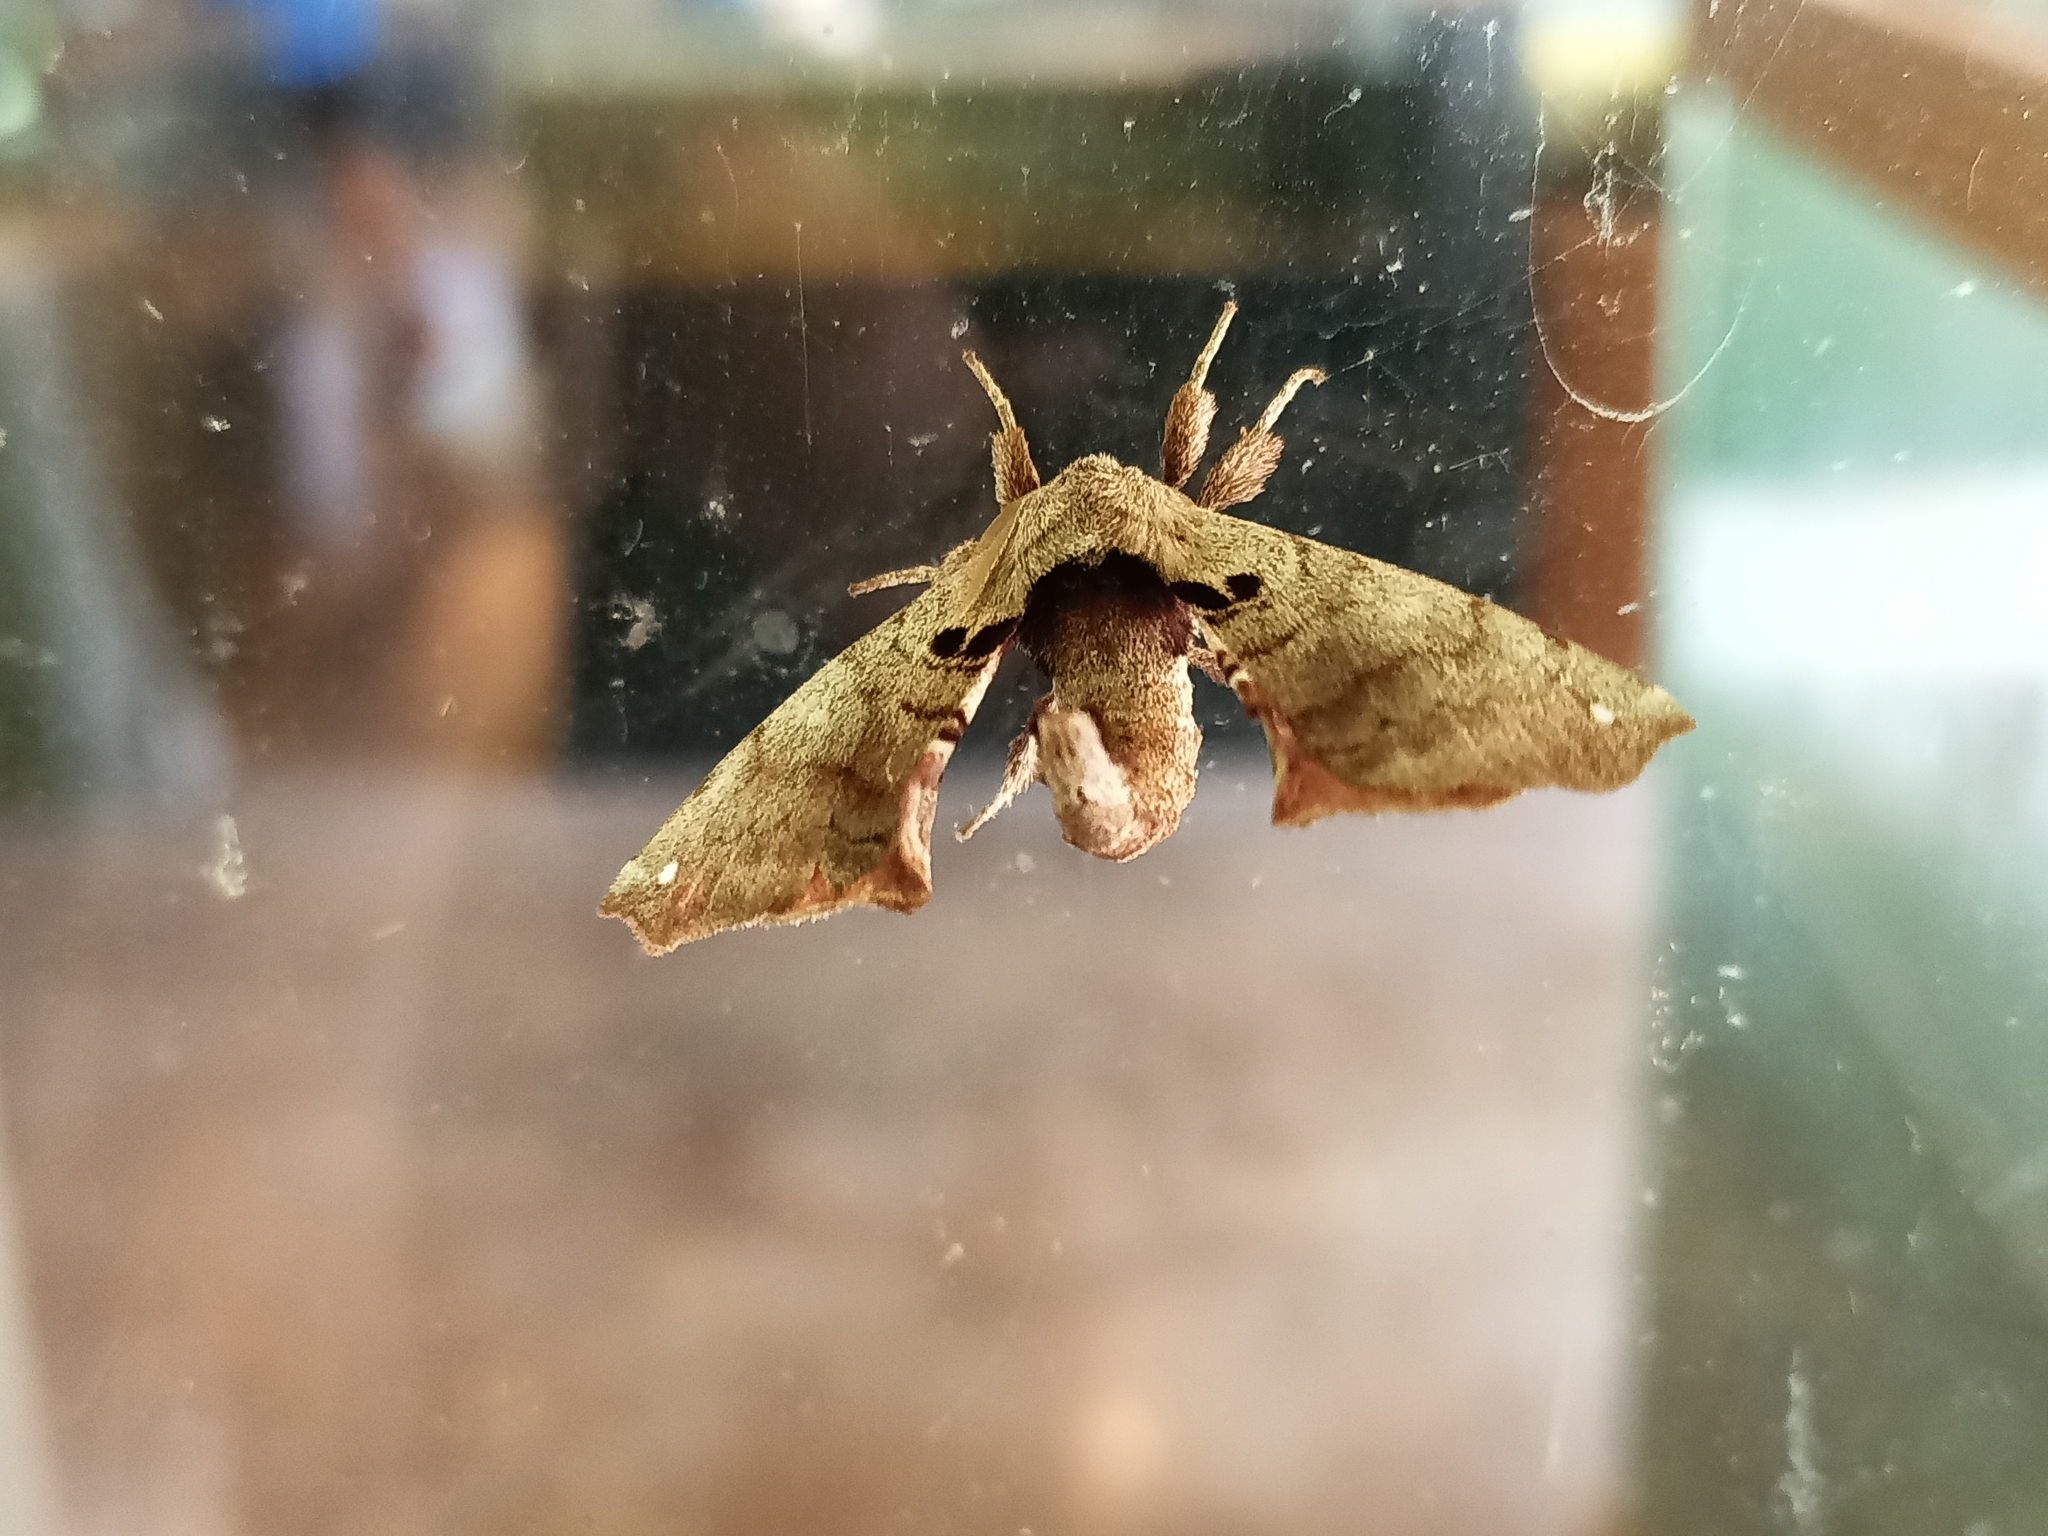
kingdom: Animalia
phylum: Arthropoda
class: Insecta
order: Lepidoptera
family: Apatelodidae
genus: Hygrochroa
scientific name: Hygrochroa Apatelodes torrefacta
